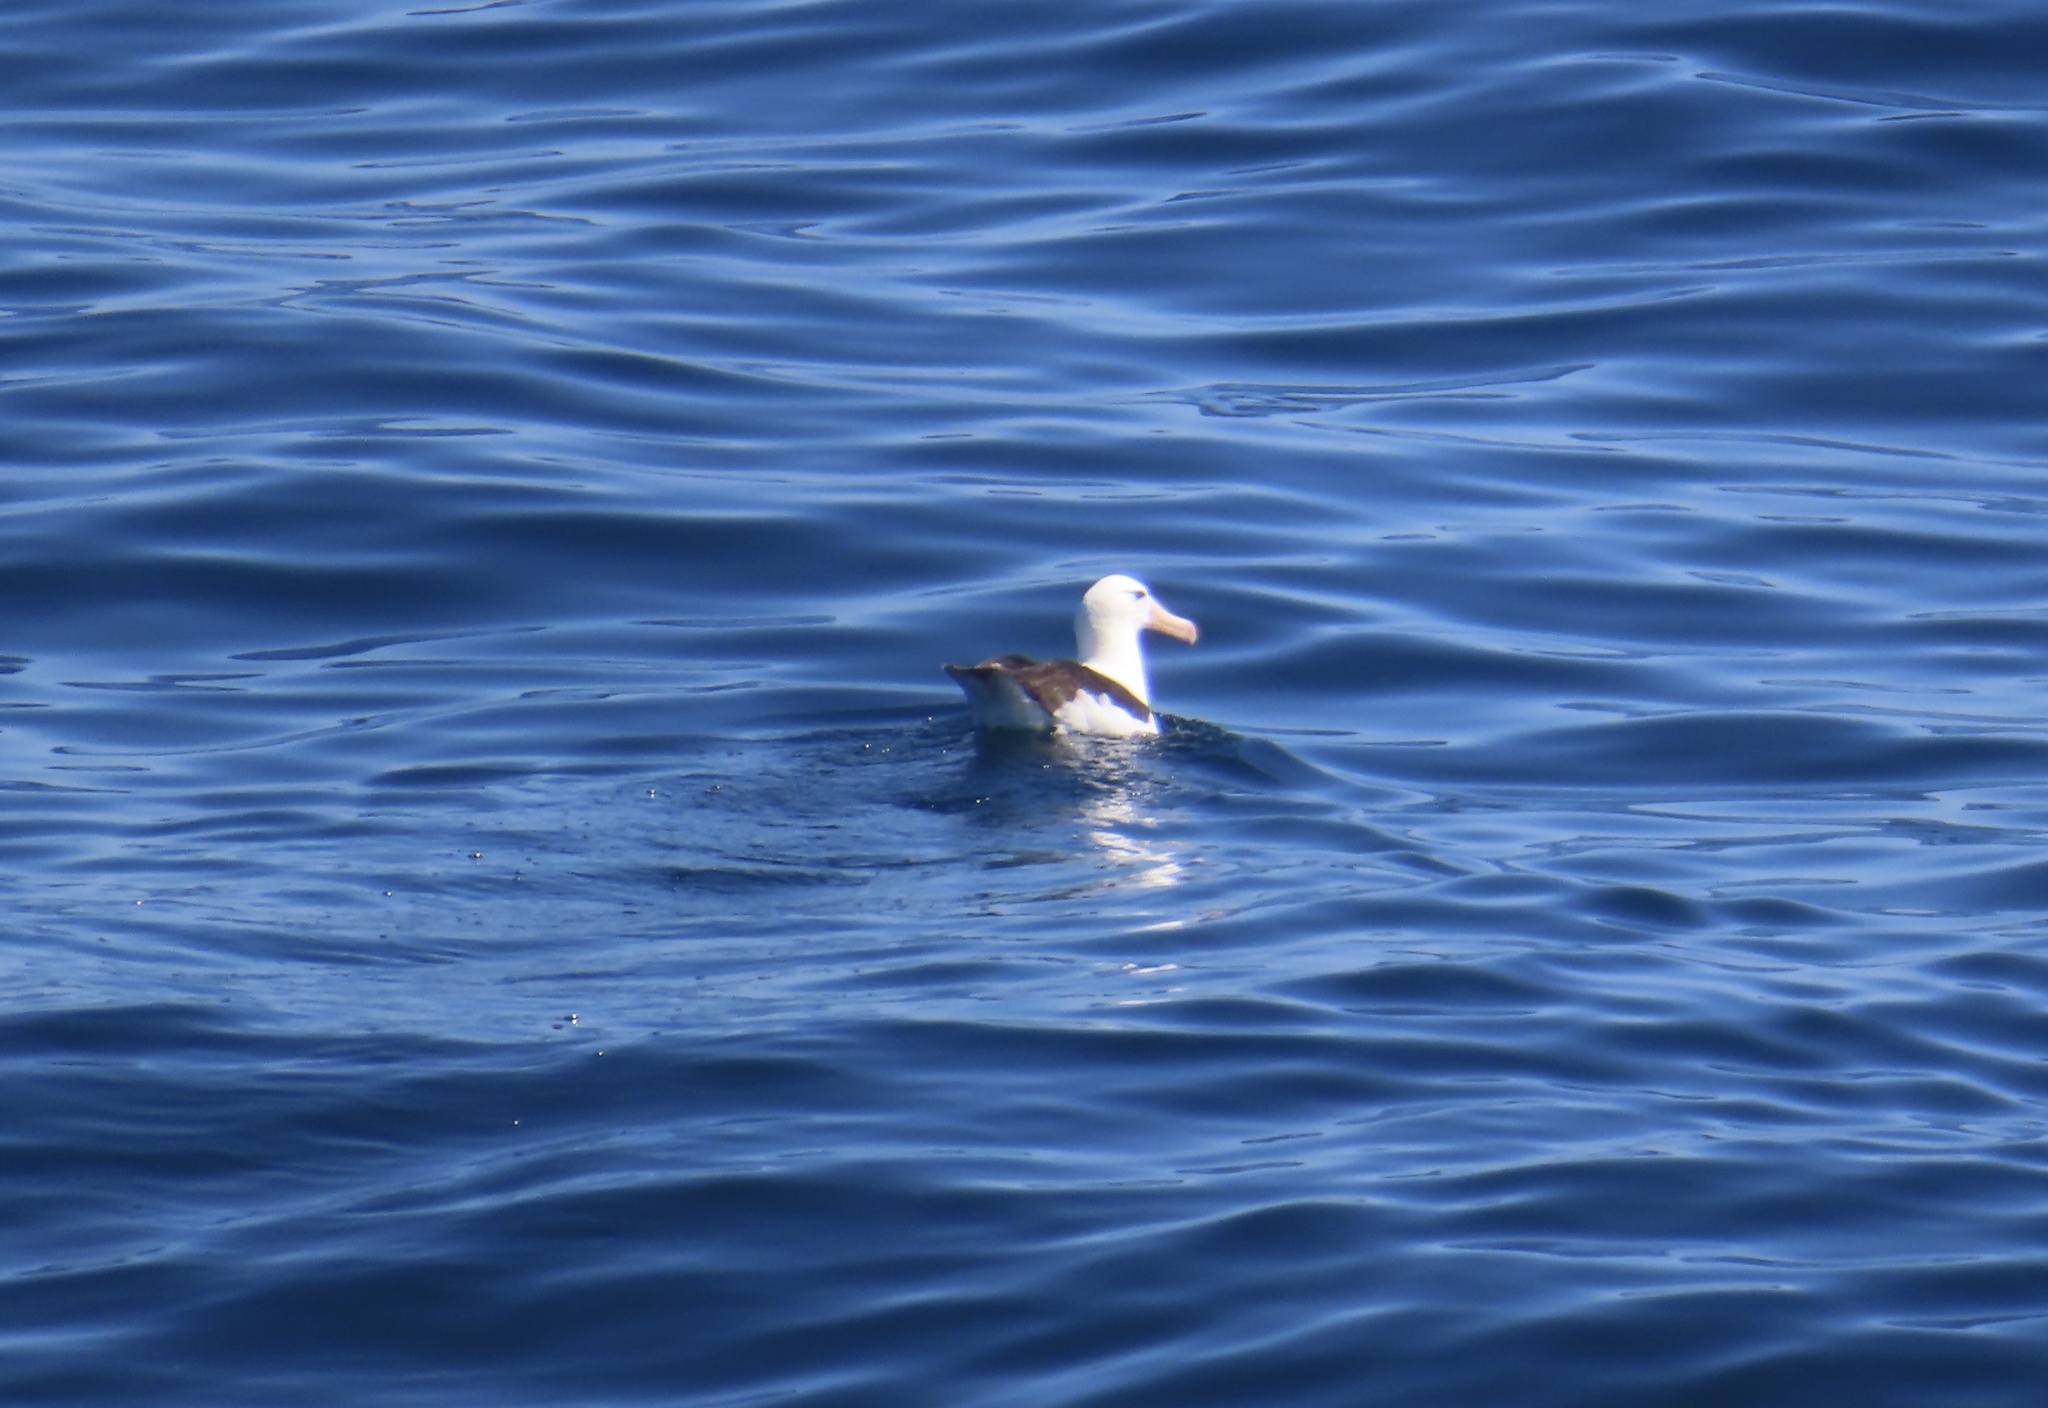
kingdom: Animalia
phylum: Chordata
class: Aves
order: Procellariiformes
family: Diomedeidae
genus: Thalassarche
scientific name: Thalassarche melanophris
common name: Black-browed albatross
